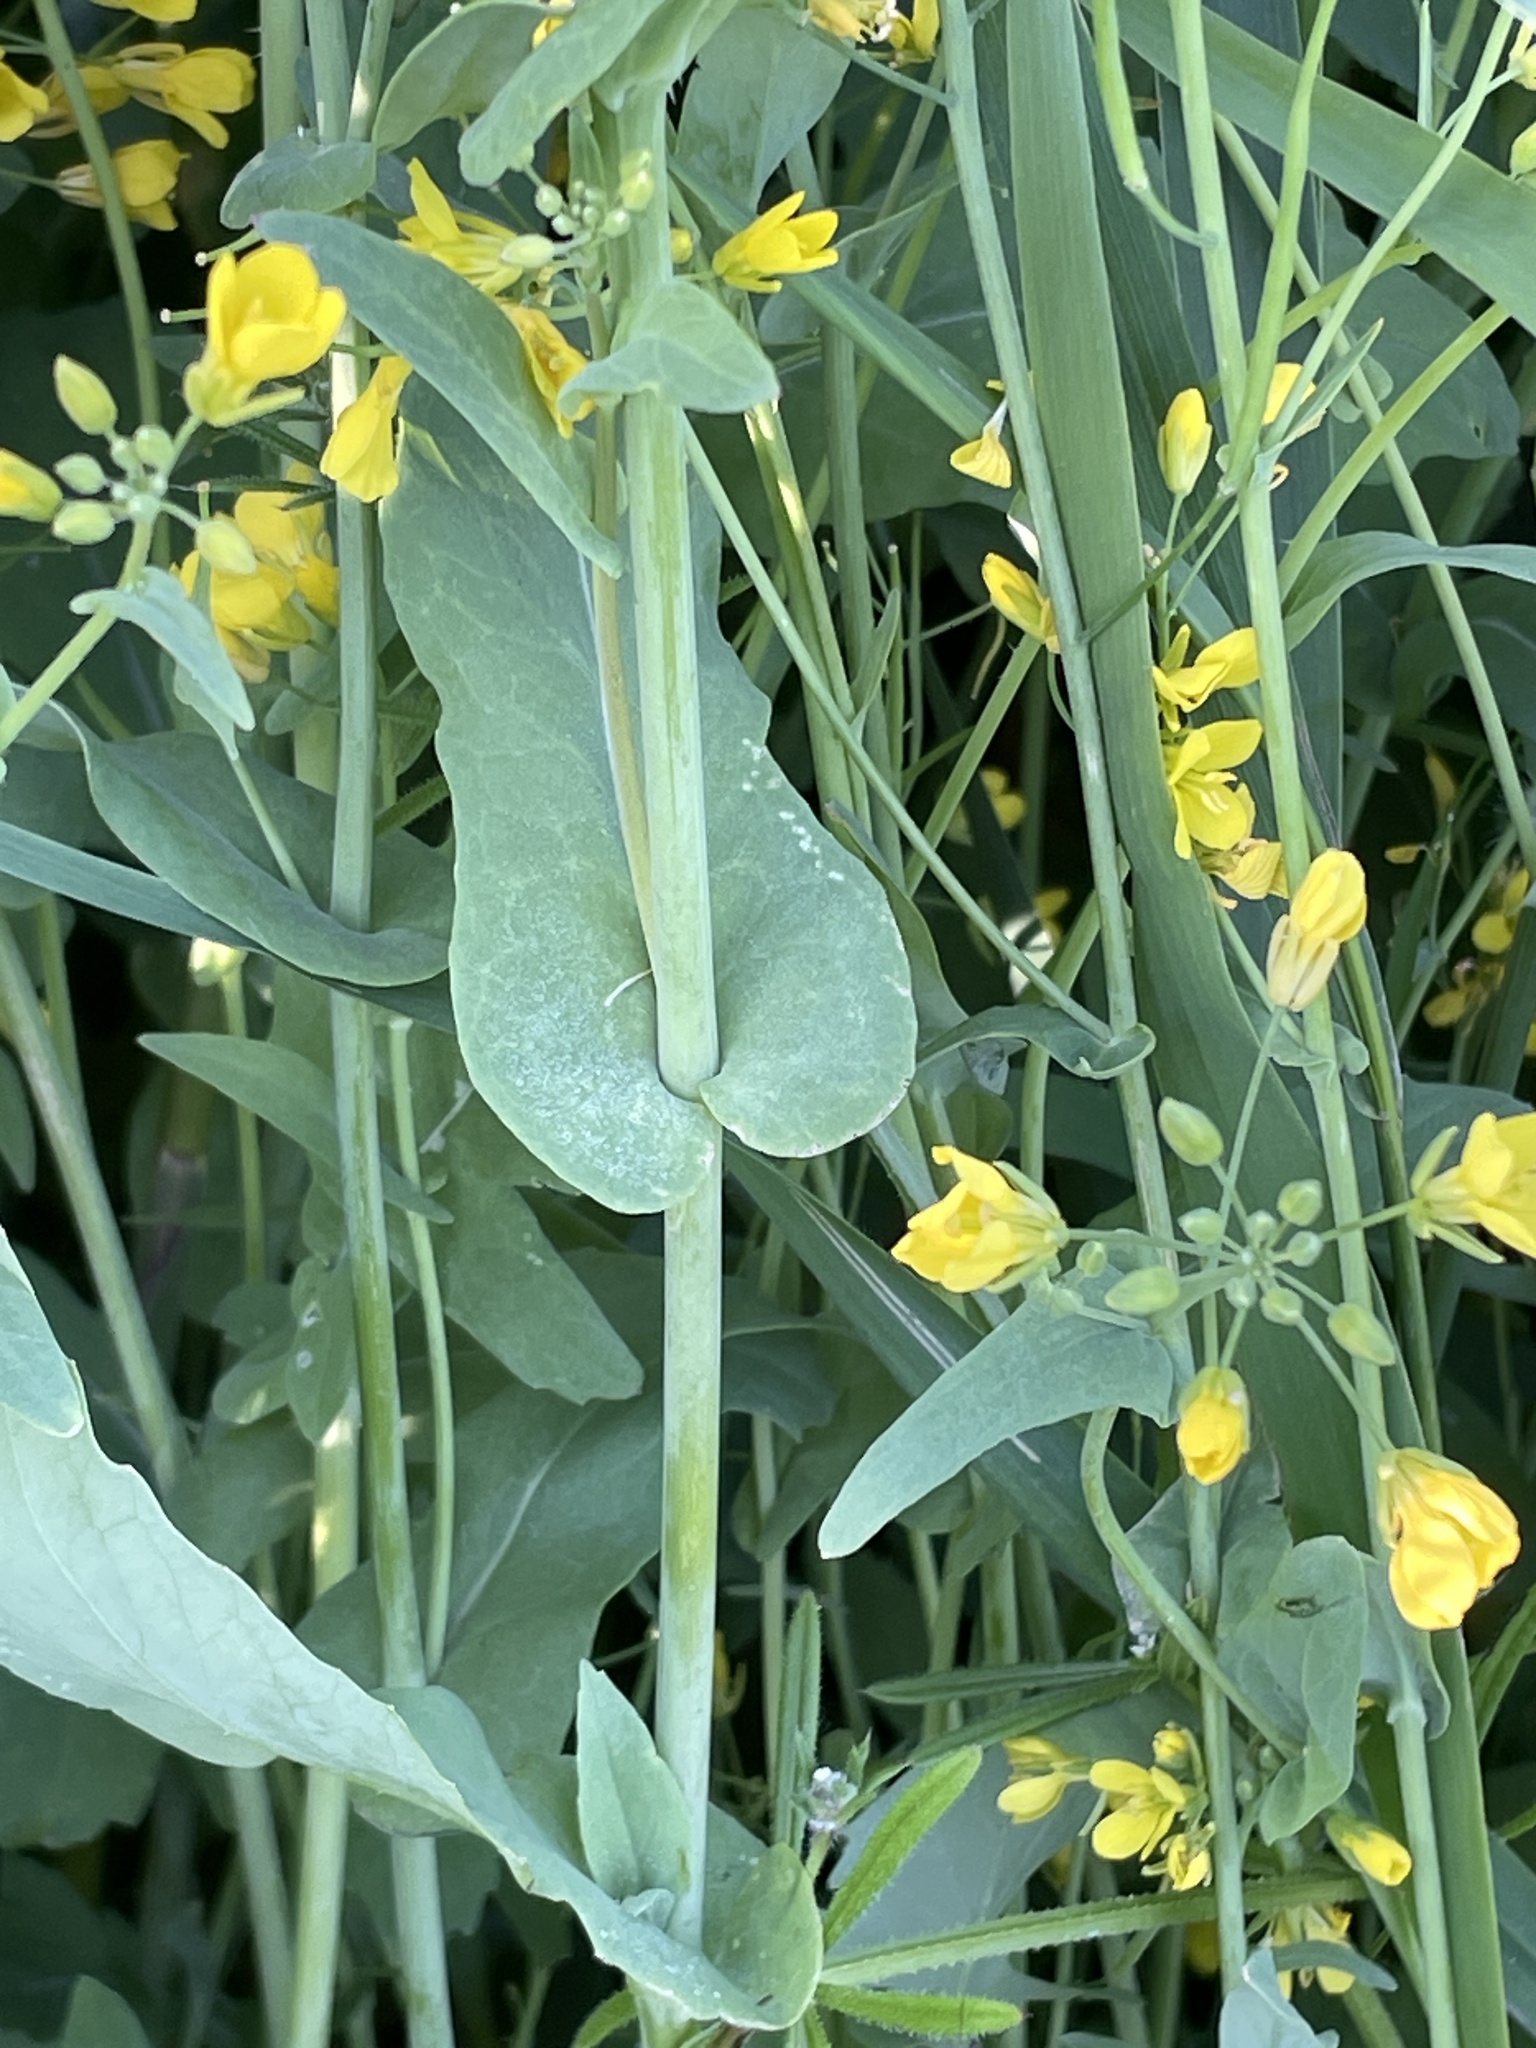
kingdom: Plantae
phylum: Tracheophyta
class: Magnoliopsida
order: Brassicales
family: Brassicaceae
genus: Brassica
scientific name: Brassica rapa
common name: Field mustard
